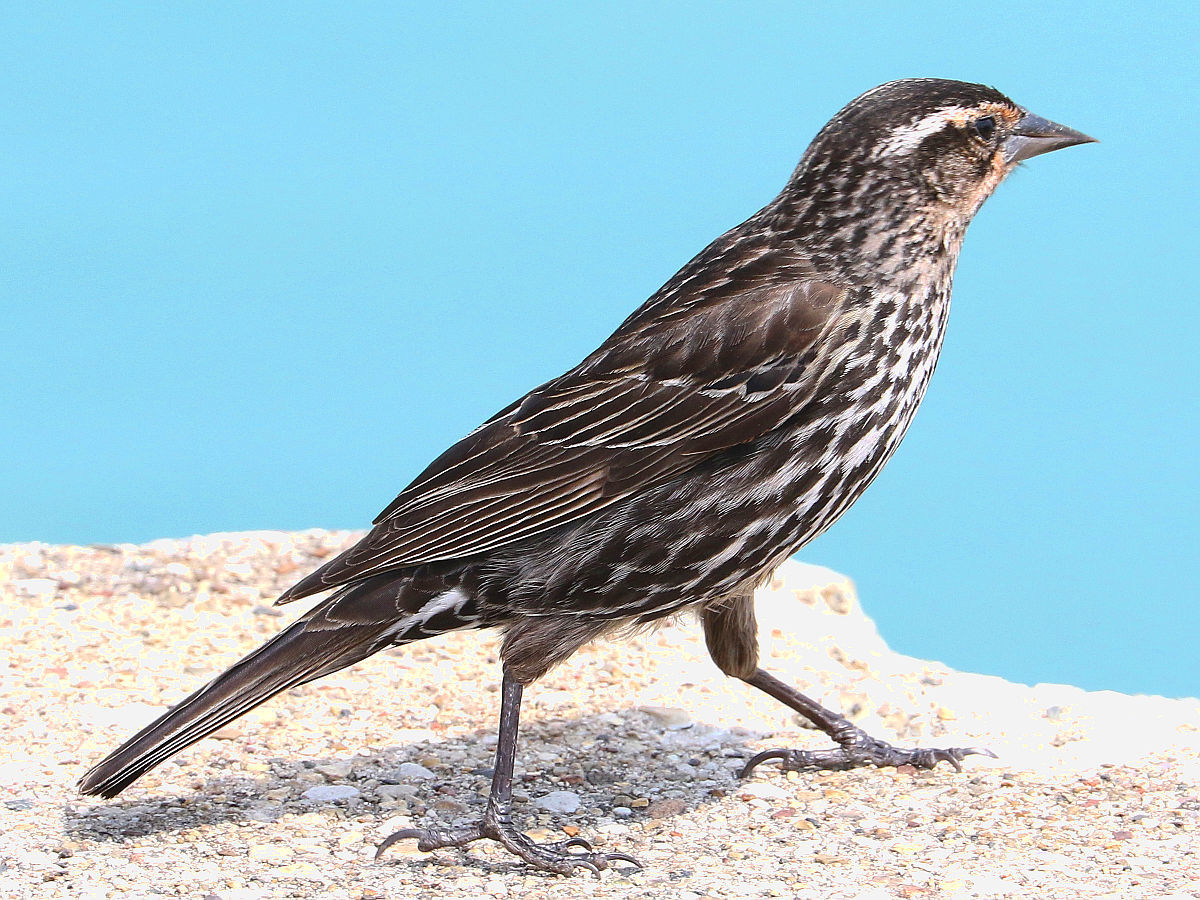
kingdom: Animalia
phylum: Chordata
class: Aves
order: Passeriformes
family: Icteridae
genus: Agelaius
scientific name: Agelaius phoeniceus
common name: Red-winged blackbird
